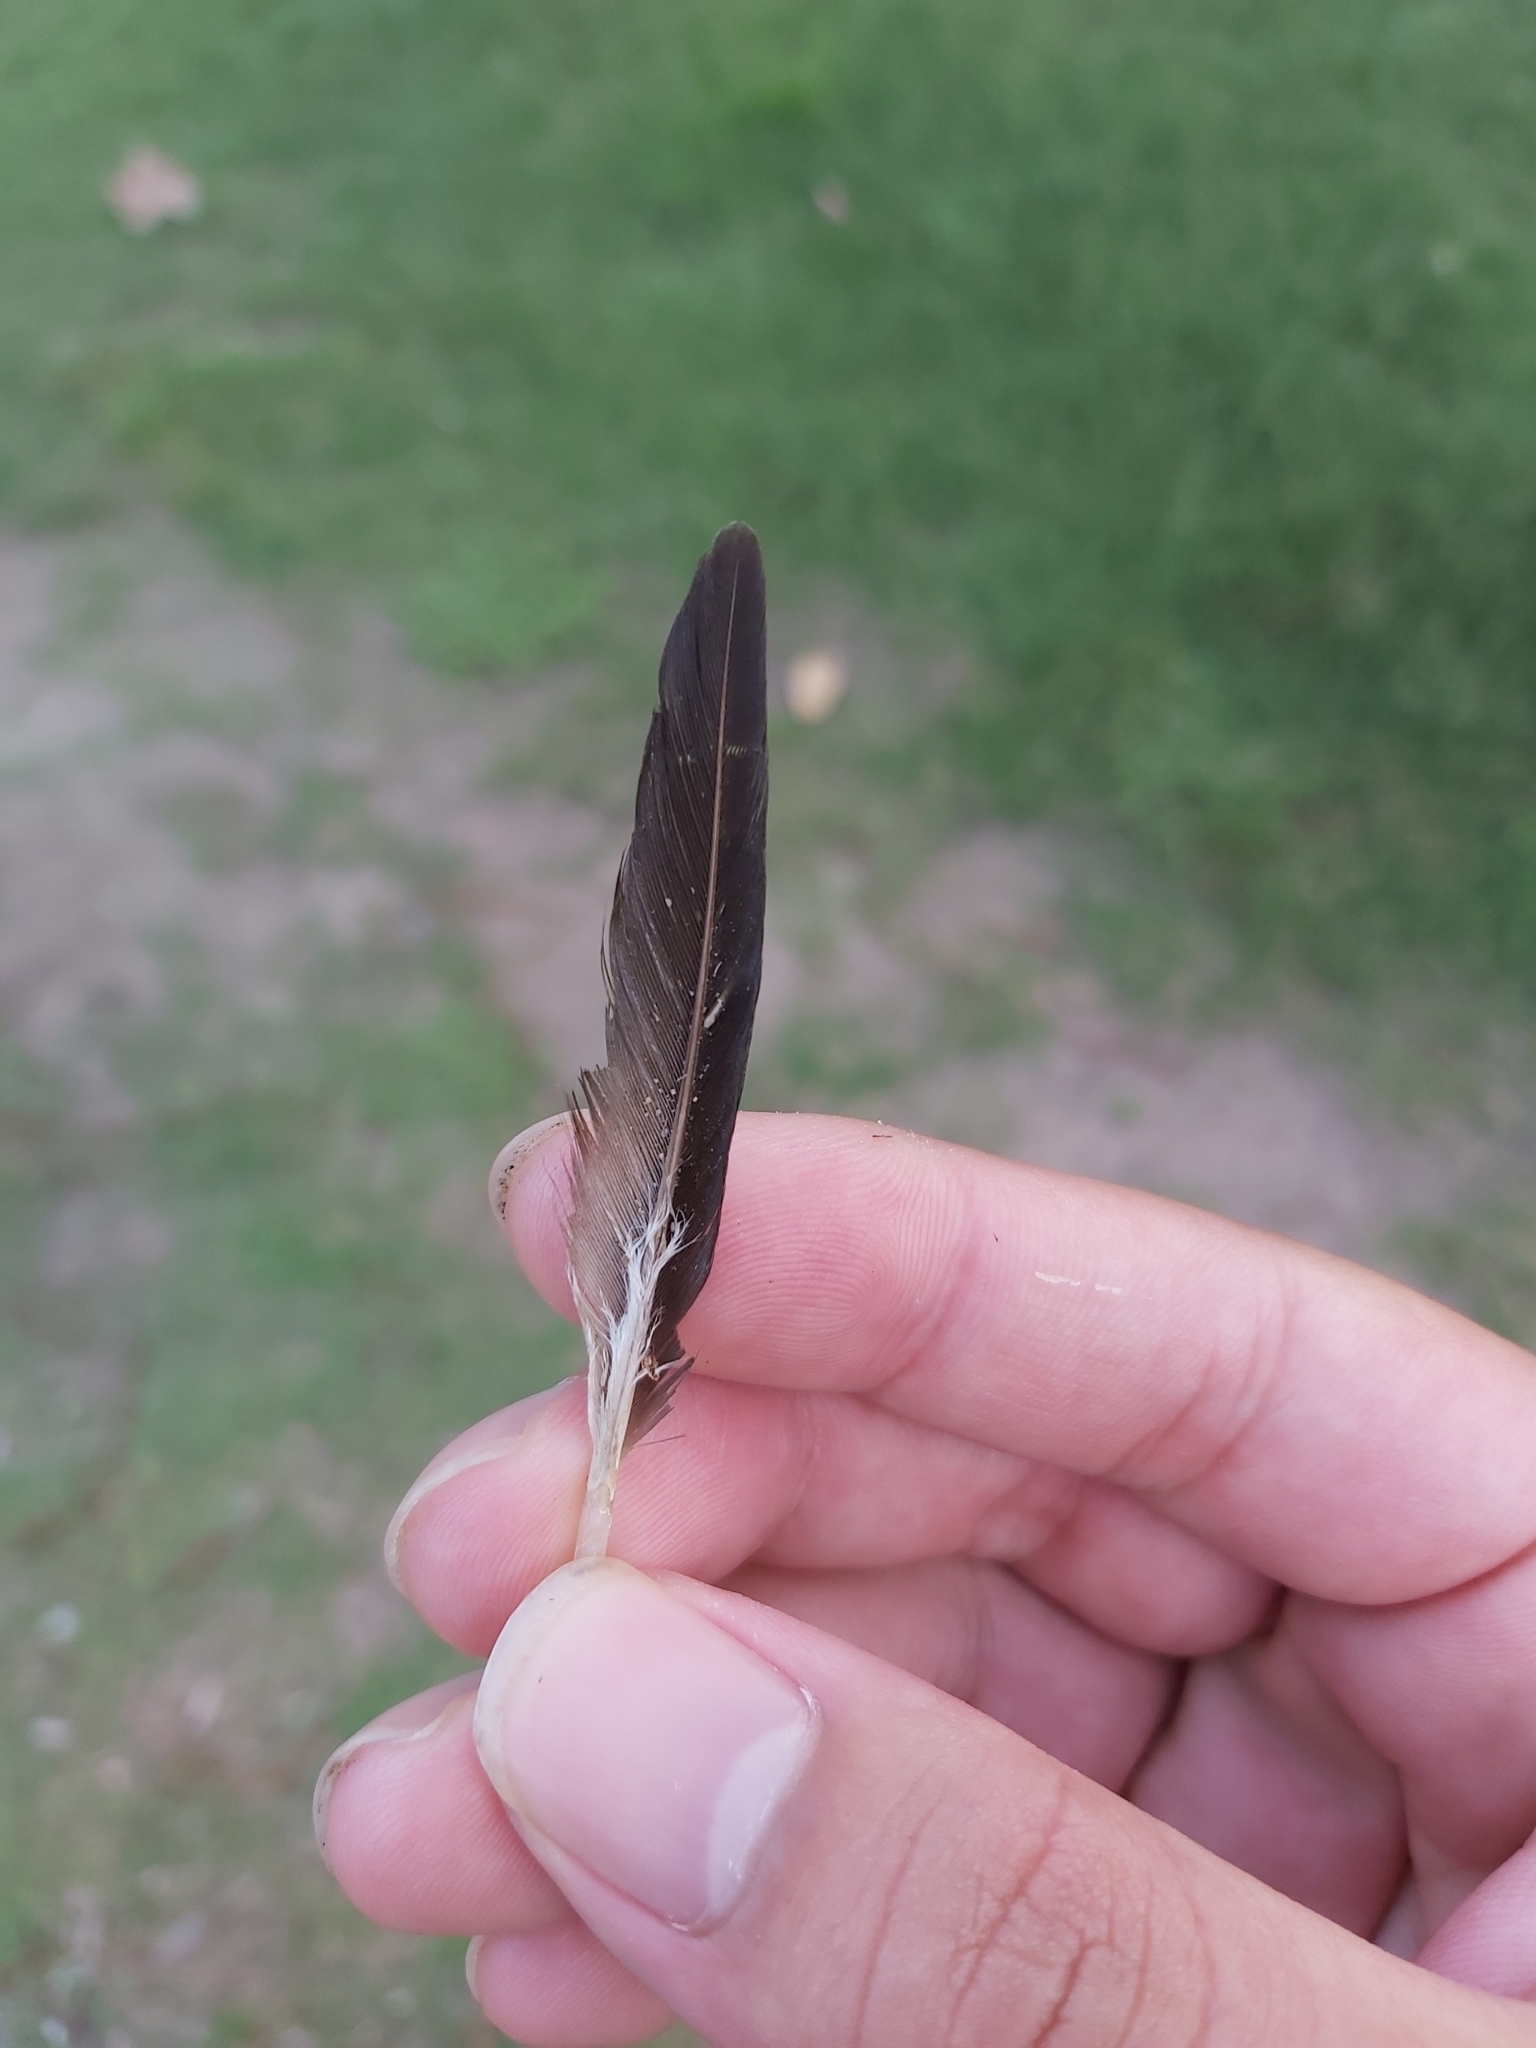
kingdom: Animalia
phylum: Chordata
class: Aves
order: Charadriiformes
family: Charadriidae
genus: Vanellus
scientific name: Vanellus miles
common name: Masked lapwing
